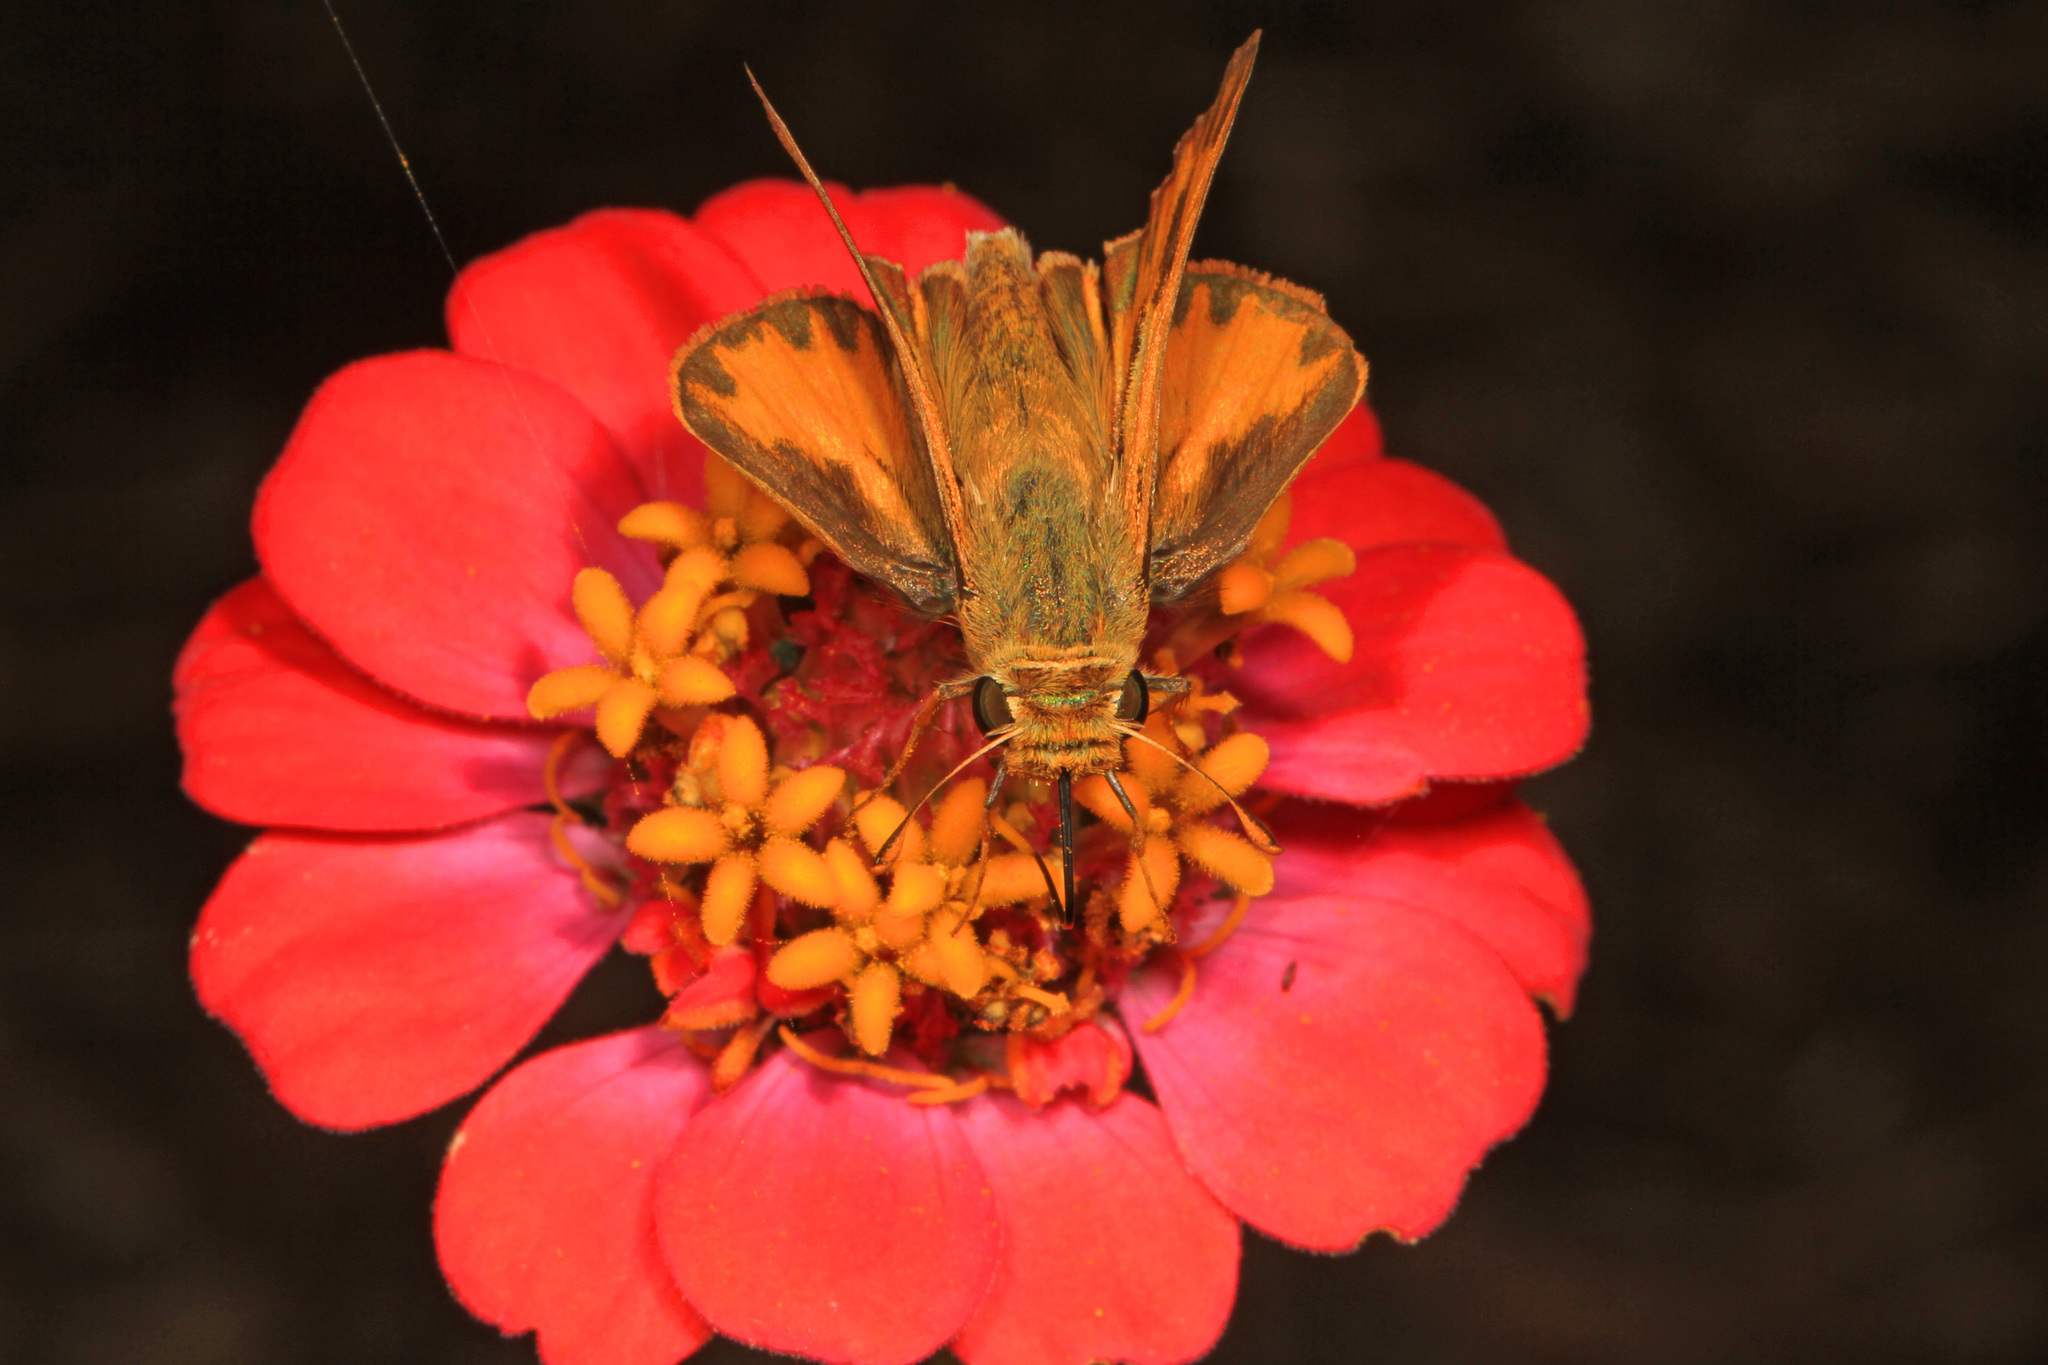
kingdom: Animalia
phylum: Arthropoda
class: Insecta
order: Lepidoptera
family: Hesperiidae
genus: Hylephila
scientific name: Hylephila phyleus
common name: Fiery skipper
